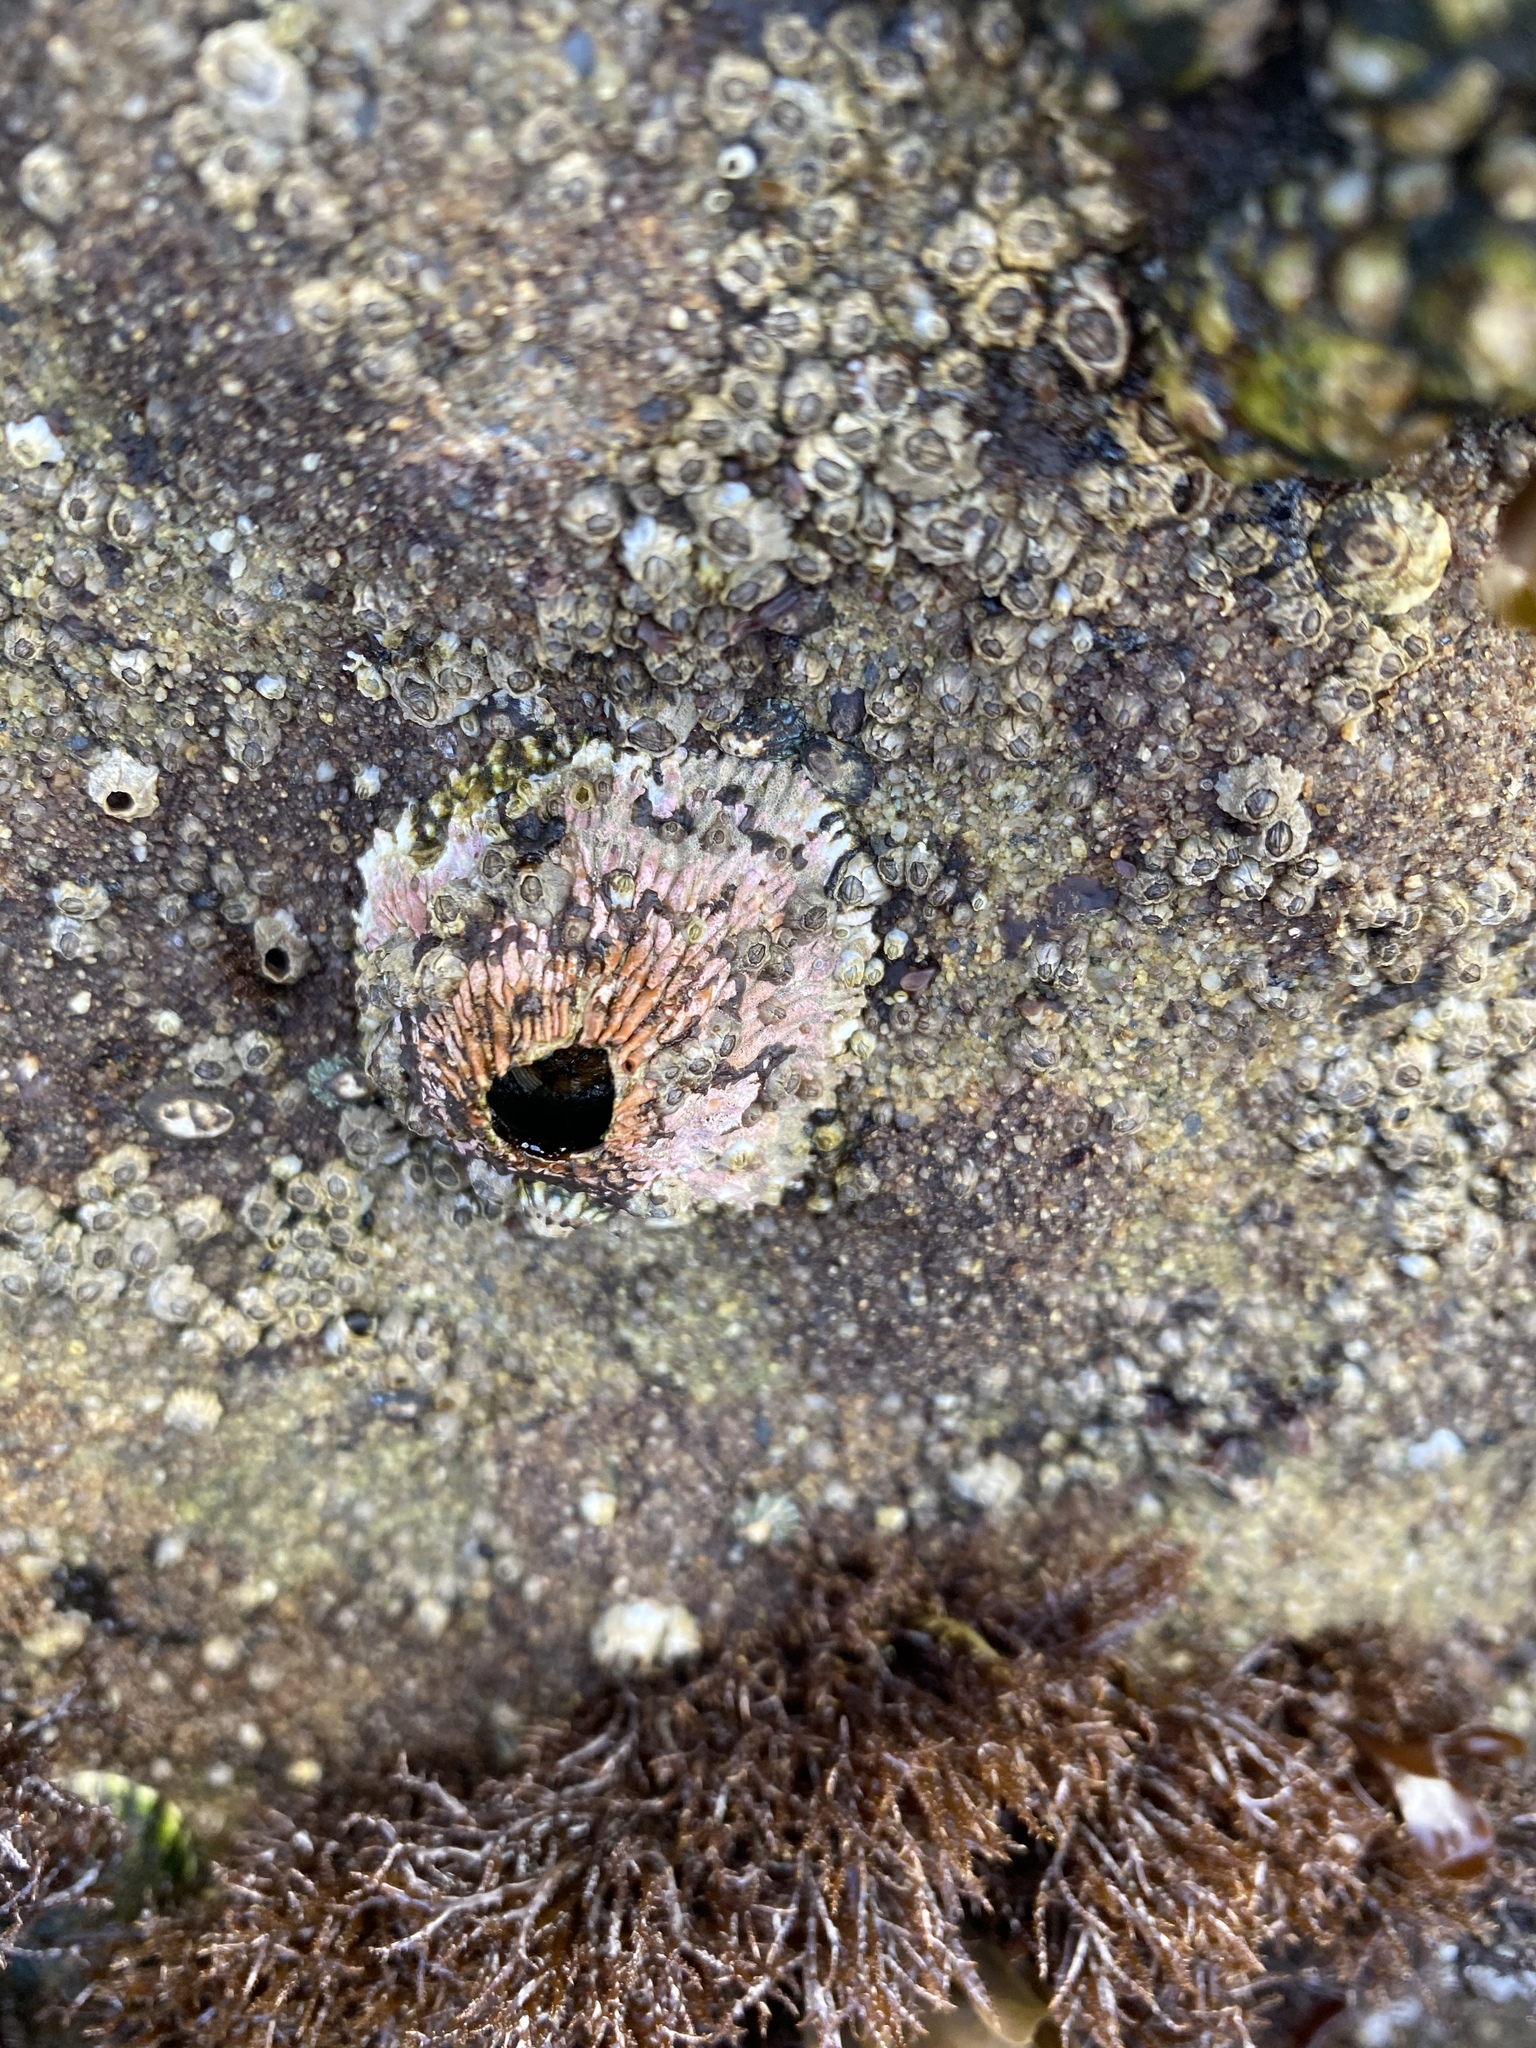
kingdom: Animalia
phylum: Arthropoda
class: Maxillopoda
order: Sessilia
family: Tetraclitidae
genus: Tetraclita
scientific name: Tetraclita rubescens
